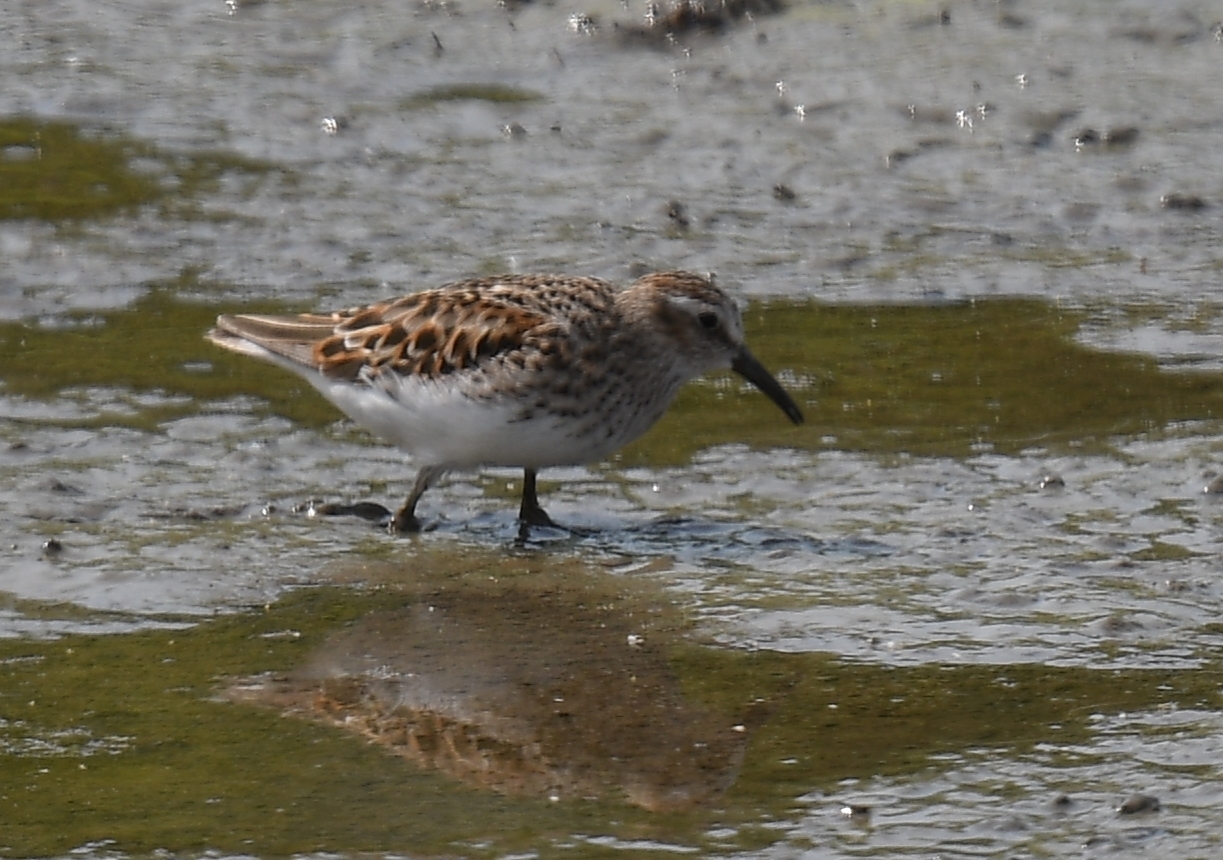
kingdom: Animalia
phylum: Chordata
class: Aves
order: Charadriiformes
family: Scolopacidae
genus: Calidris
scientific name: Calidris mauri
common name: Western sandpiper
